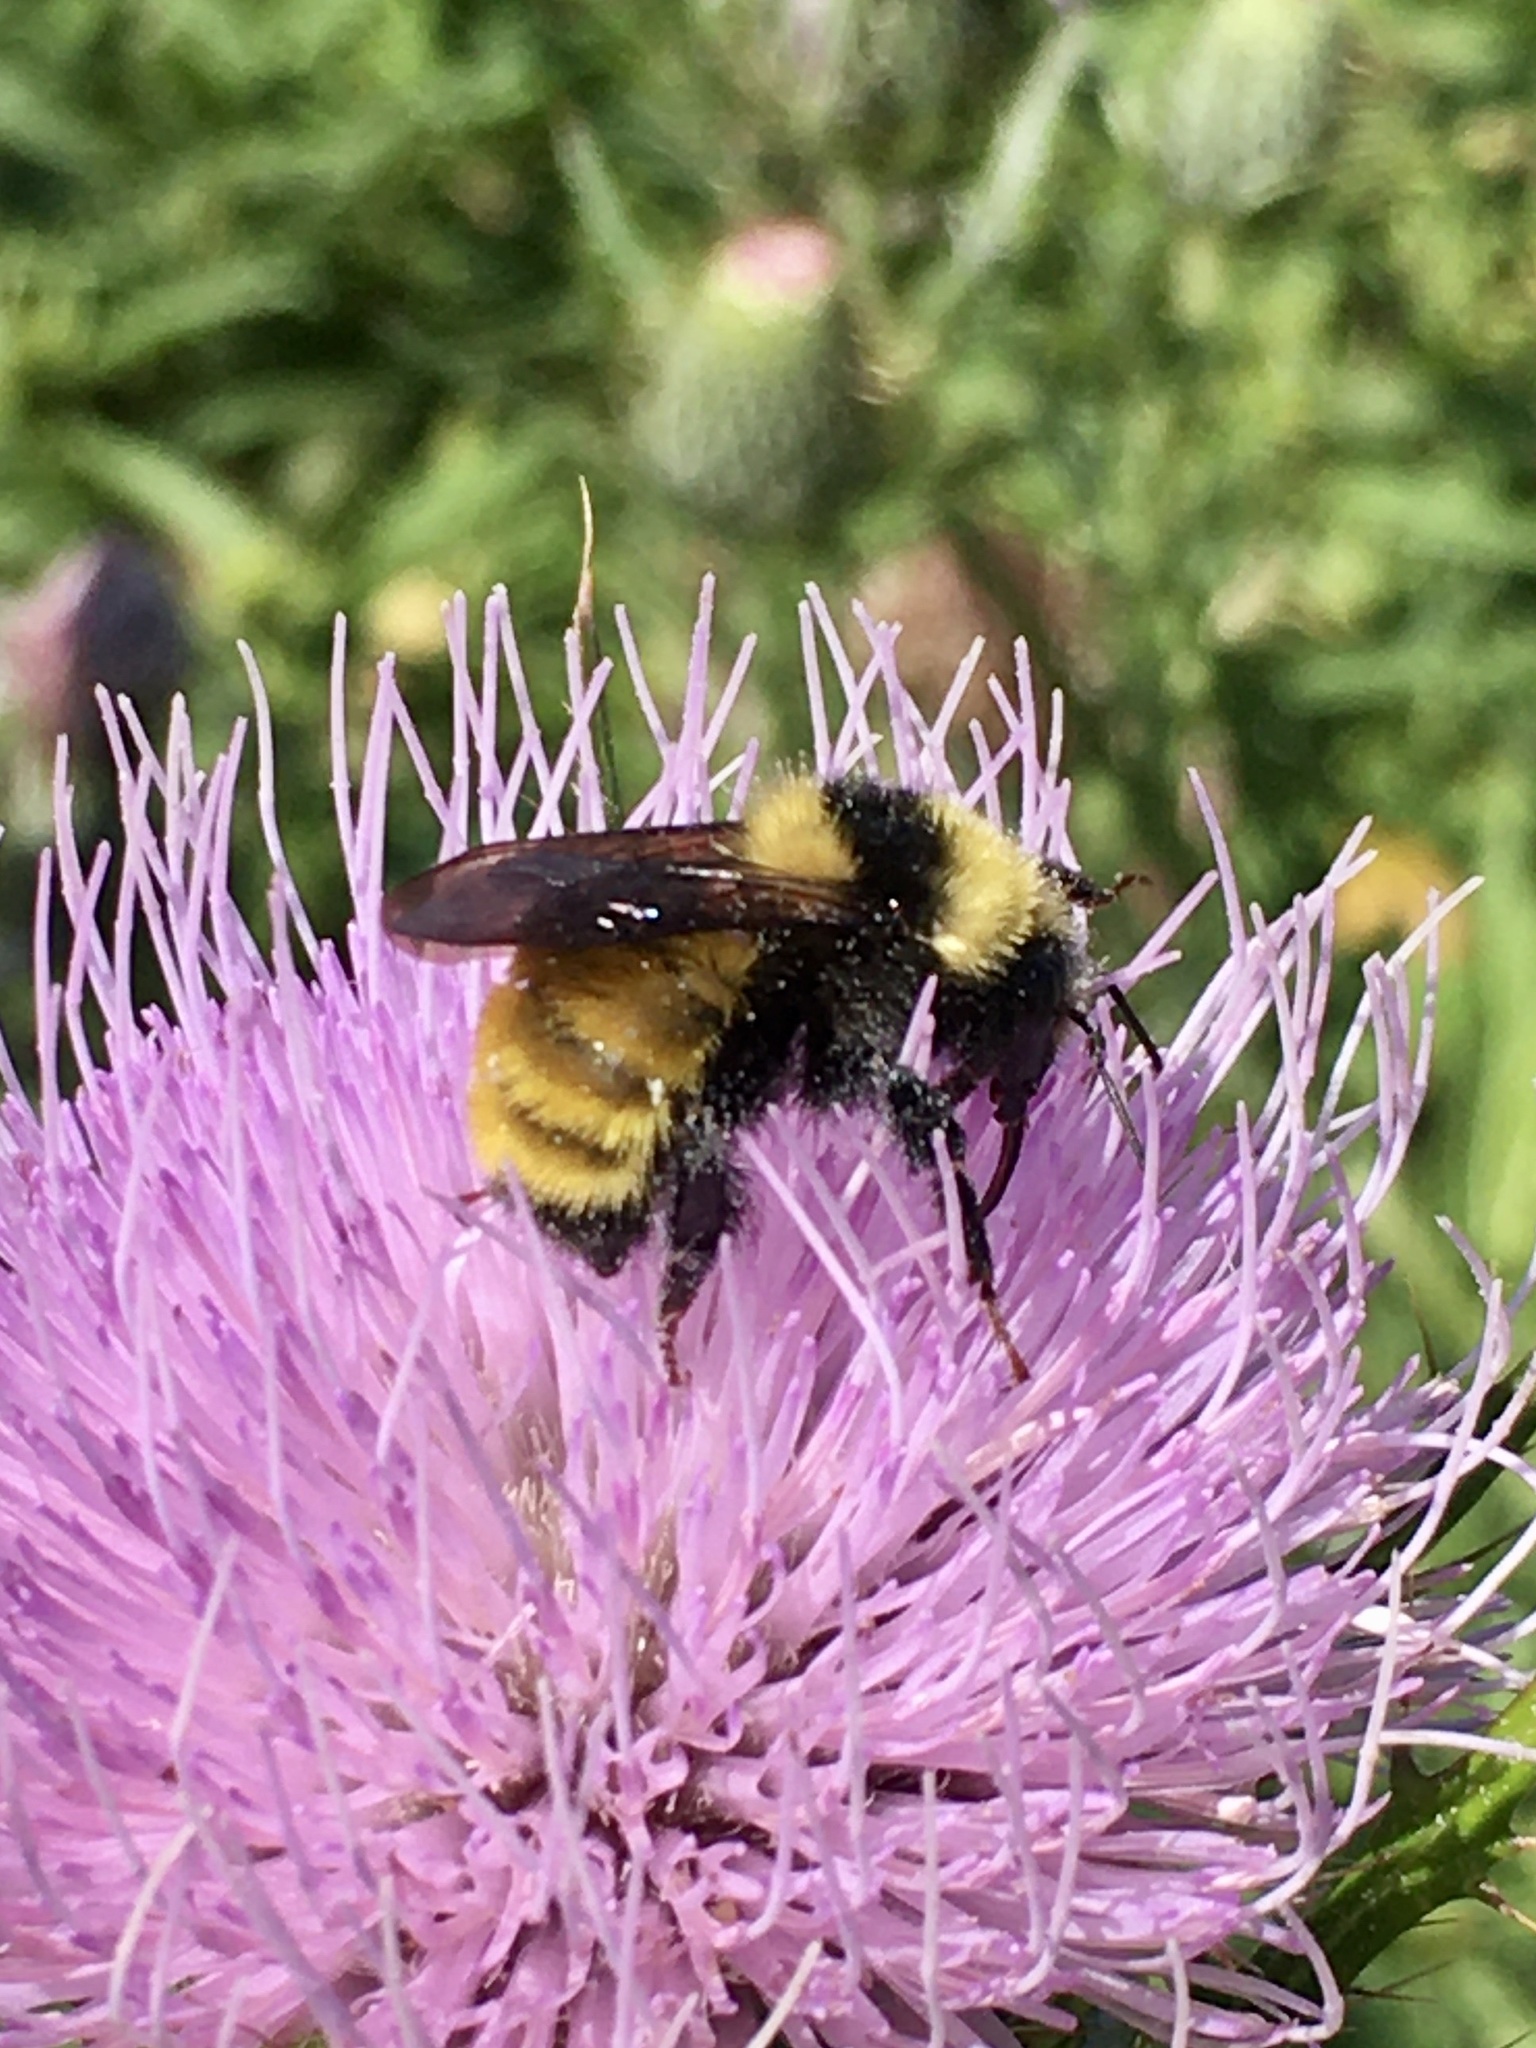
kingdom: Animalia
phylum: Arthropoda
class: Insecta
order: Hymenoptera
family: Apidae
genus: Bombus
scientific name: Bombus borealis
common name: Northern amber bumble bee
